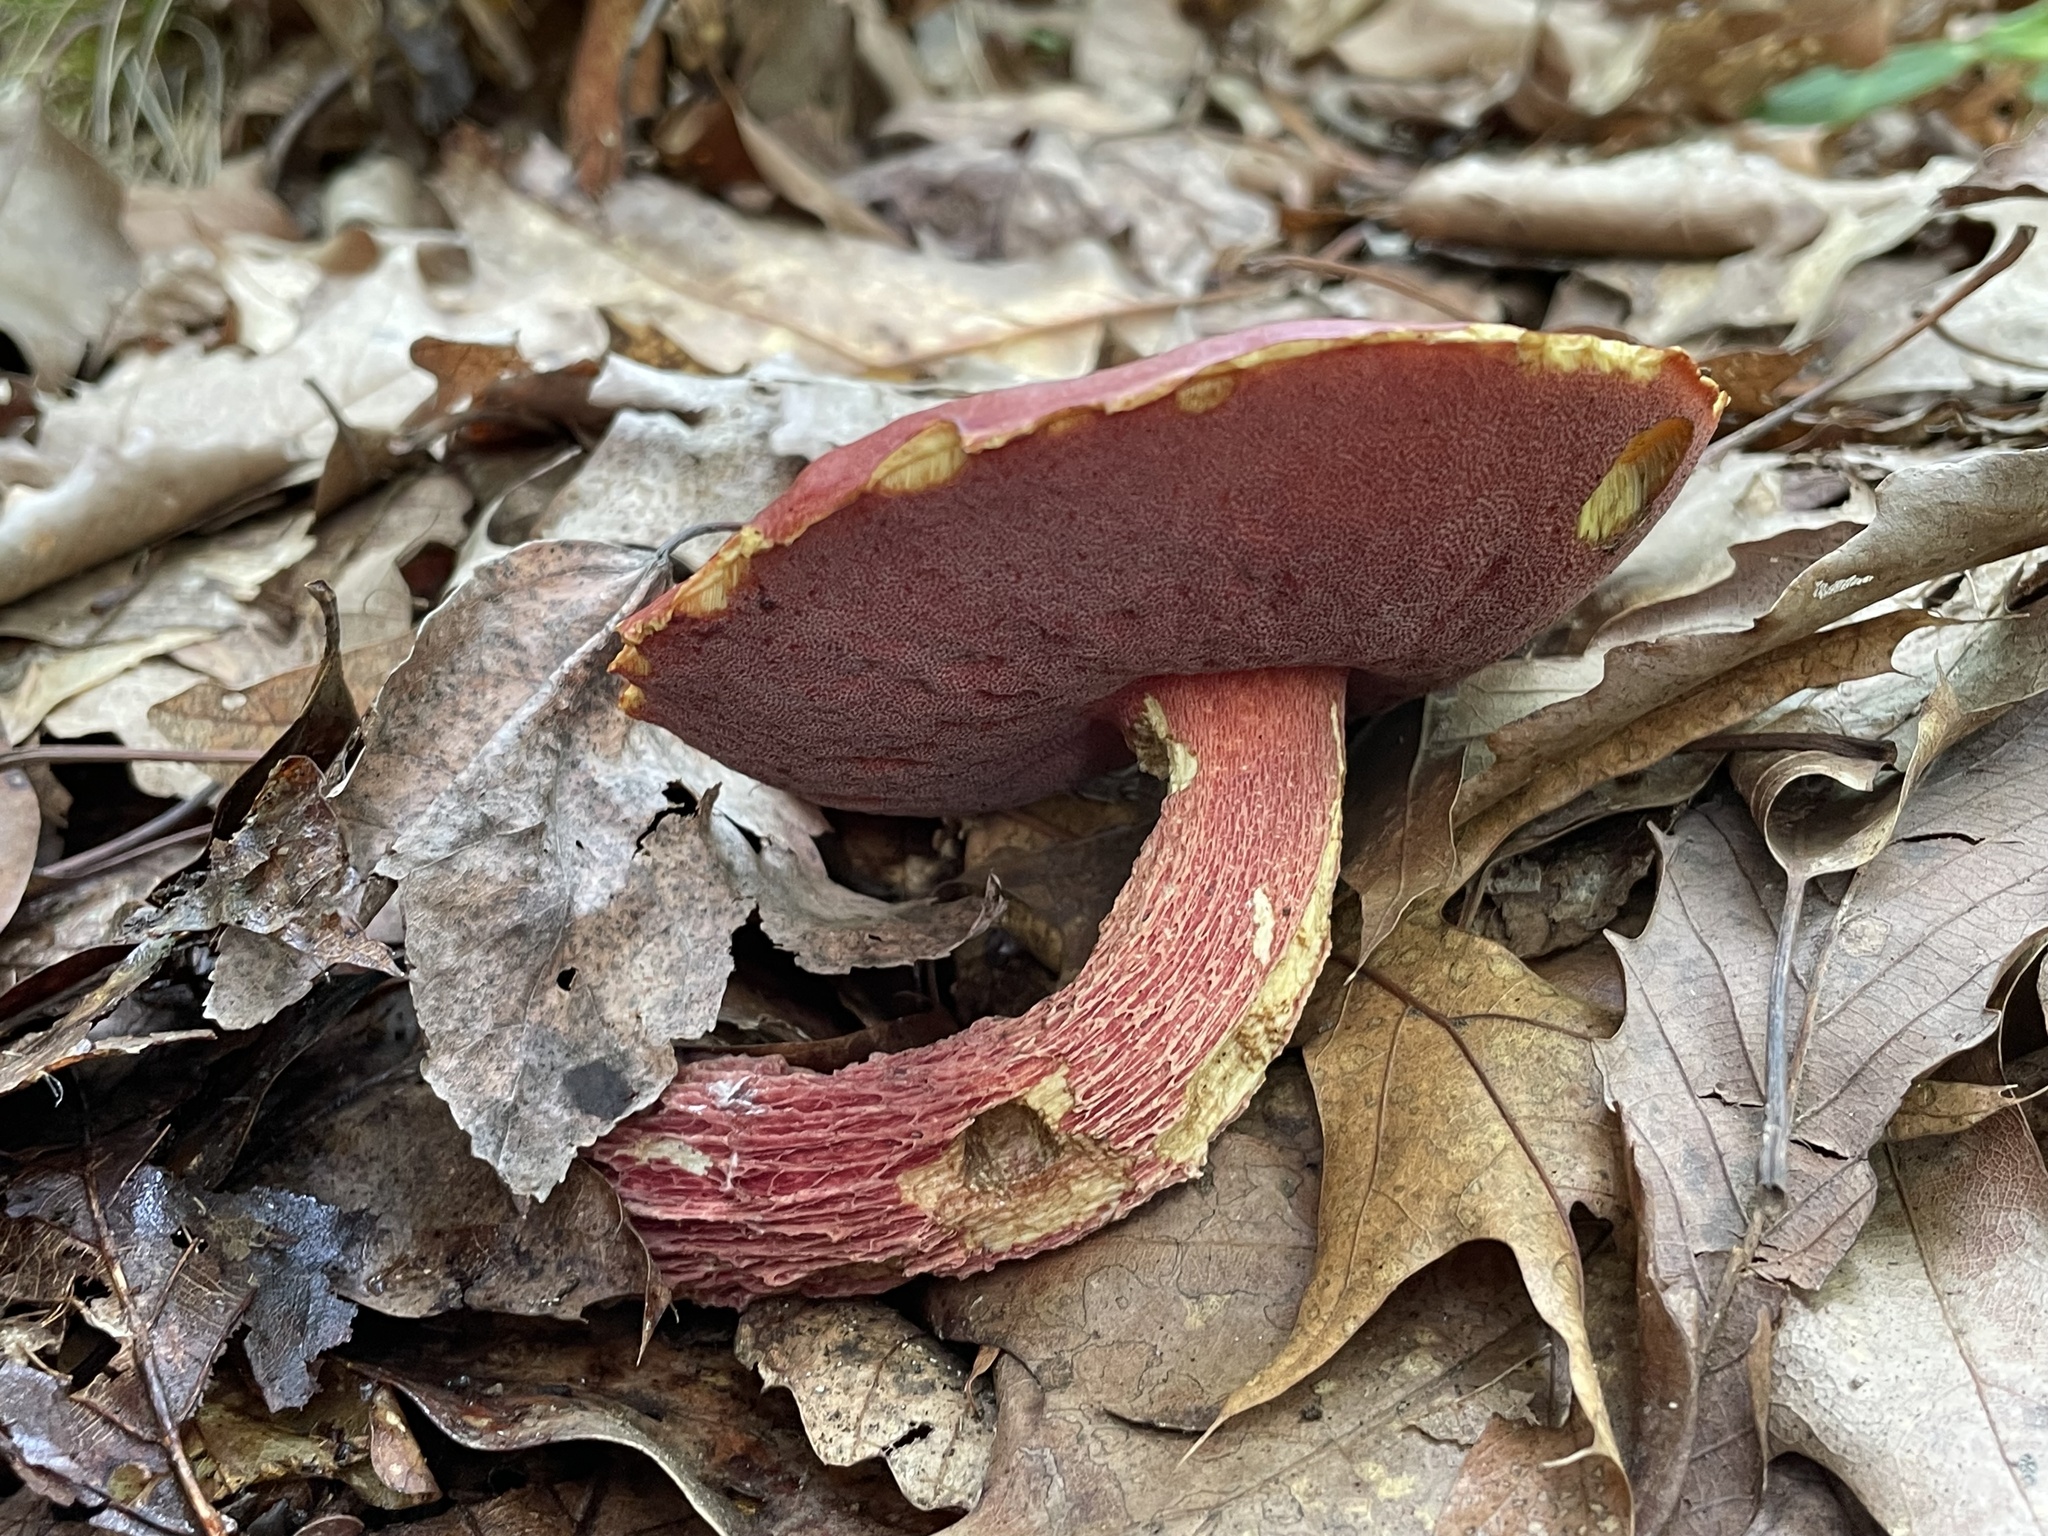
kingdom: Fungi
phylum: Basidiomycota
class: Agaricomycetes
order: Boletales
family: Boletaceae
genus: Butyriboletus
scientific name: Butyriboletus frostii
